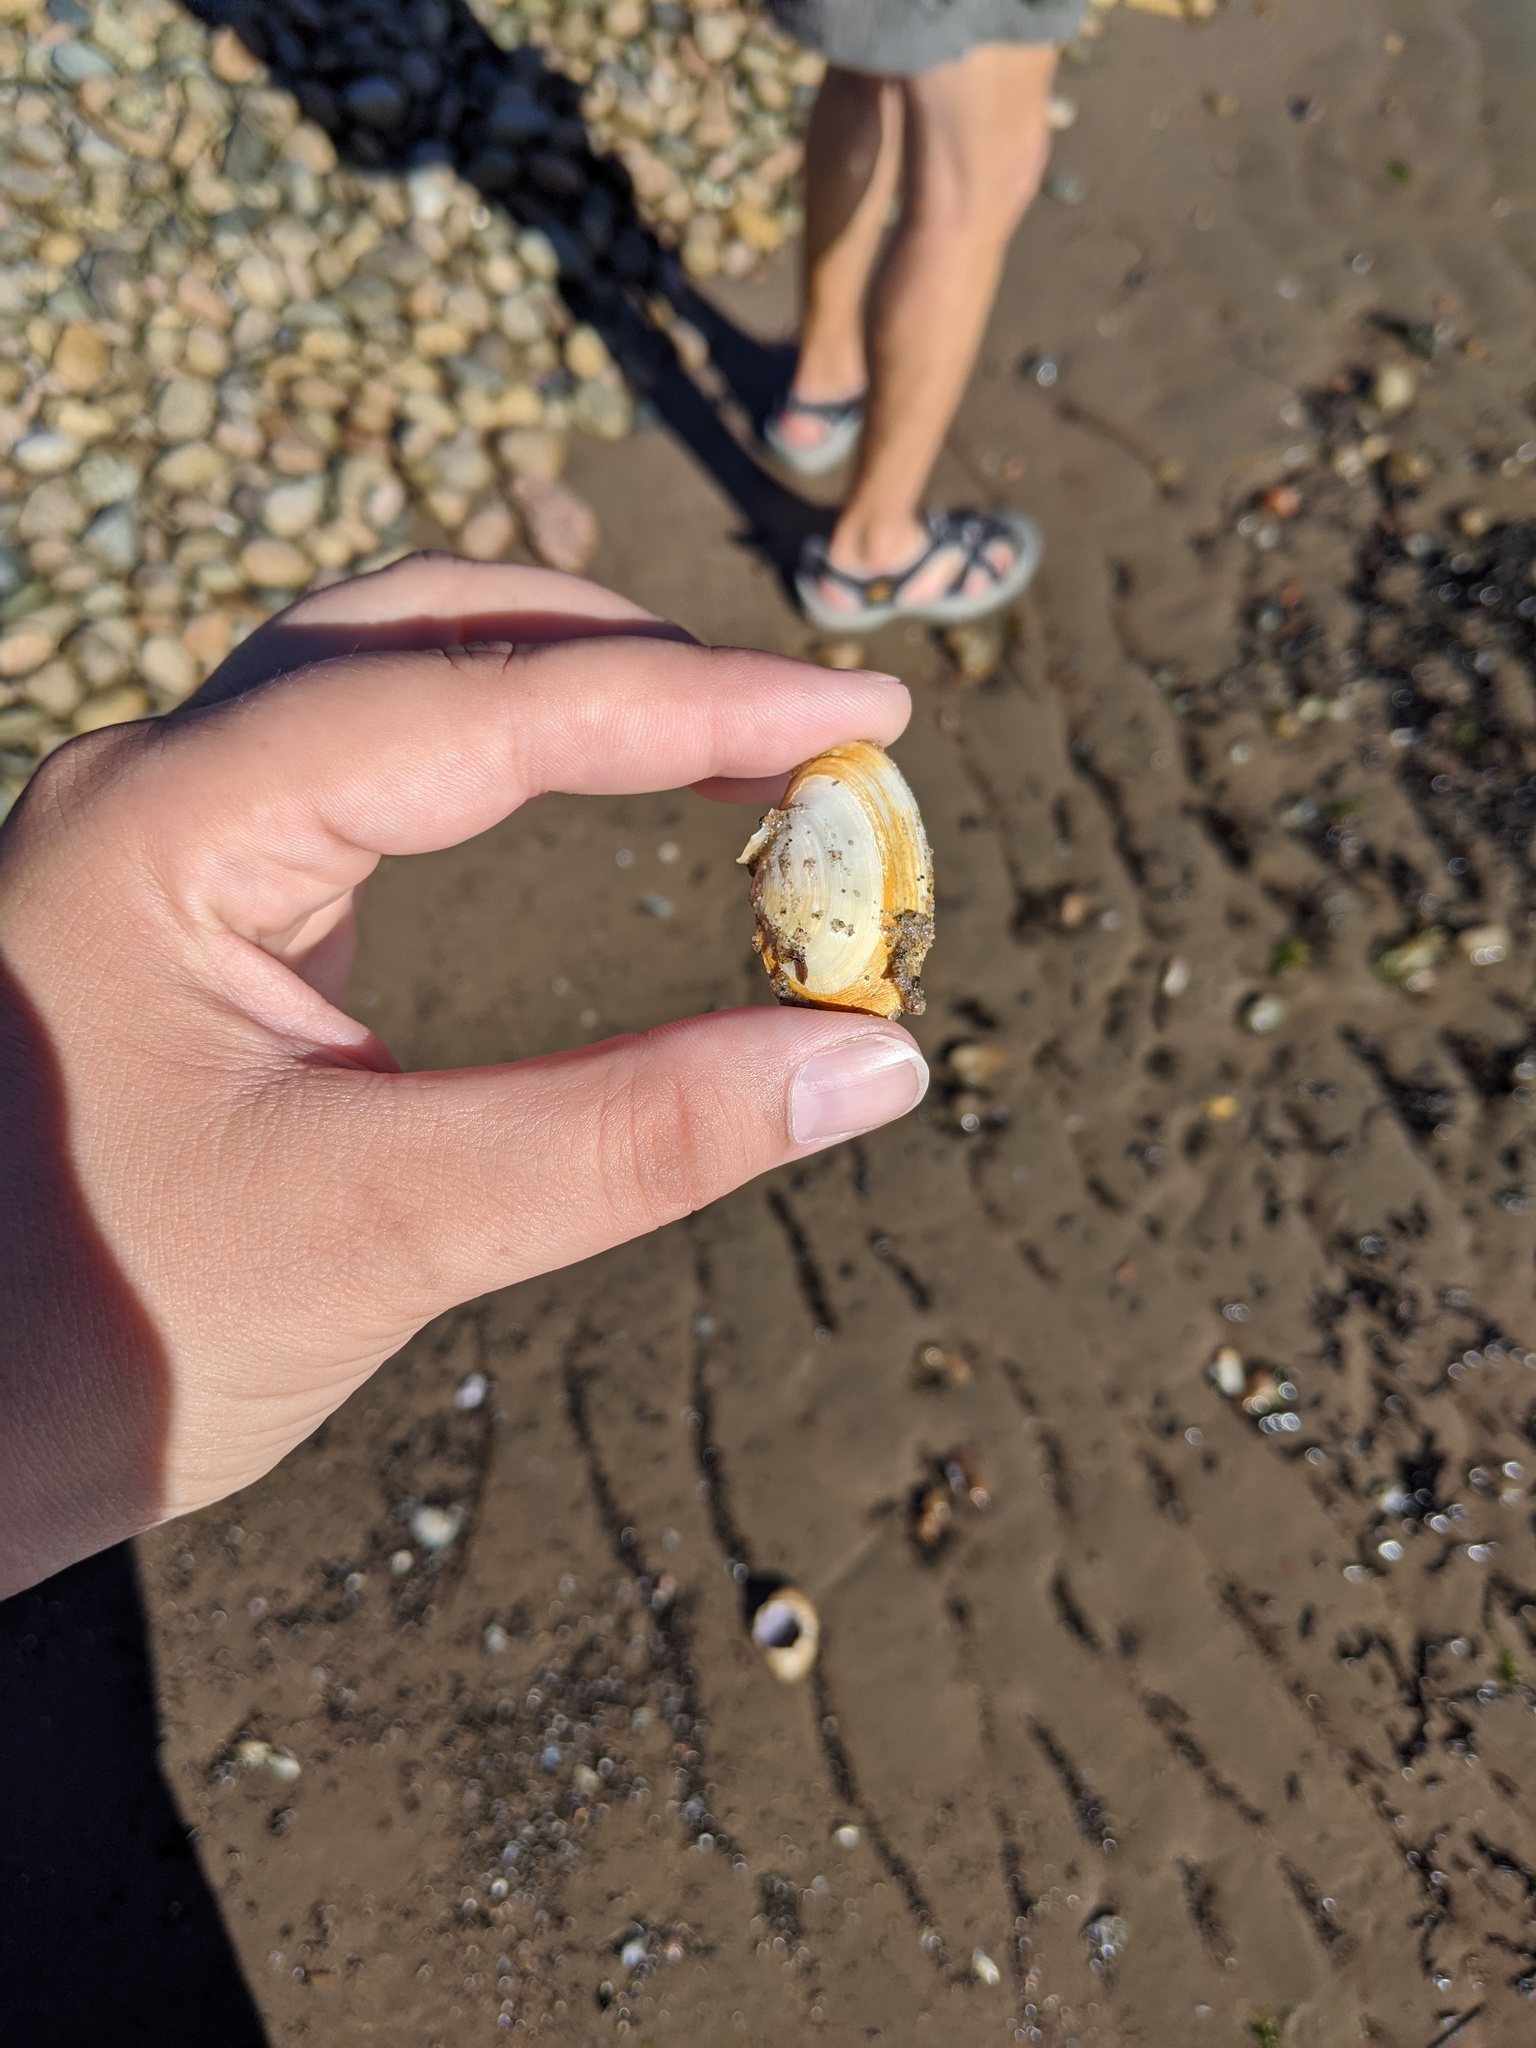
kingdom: Animalia
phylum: Mollusca
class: Bivalvia
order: Myida
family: Myidae
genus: Mya
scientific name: Mya arenaria
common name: Soft-shelled clam
